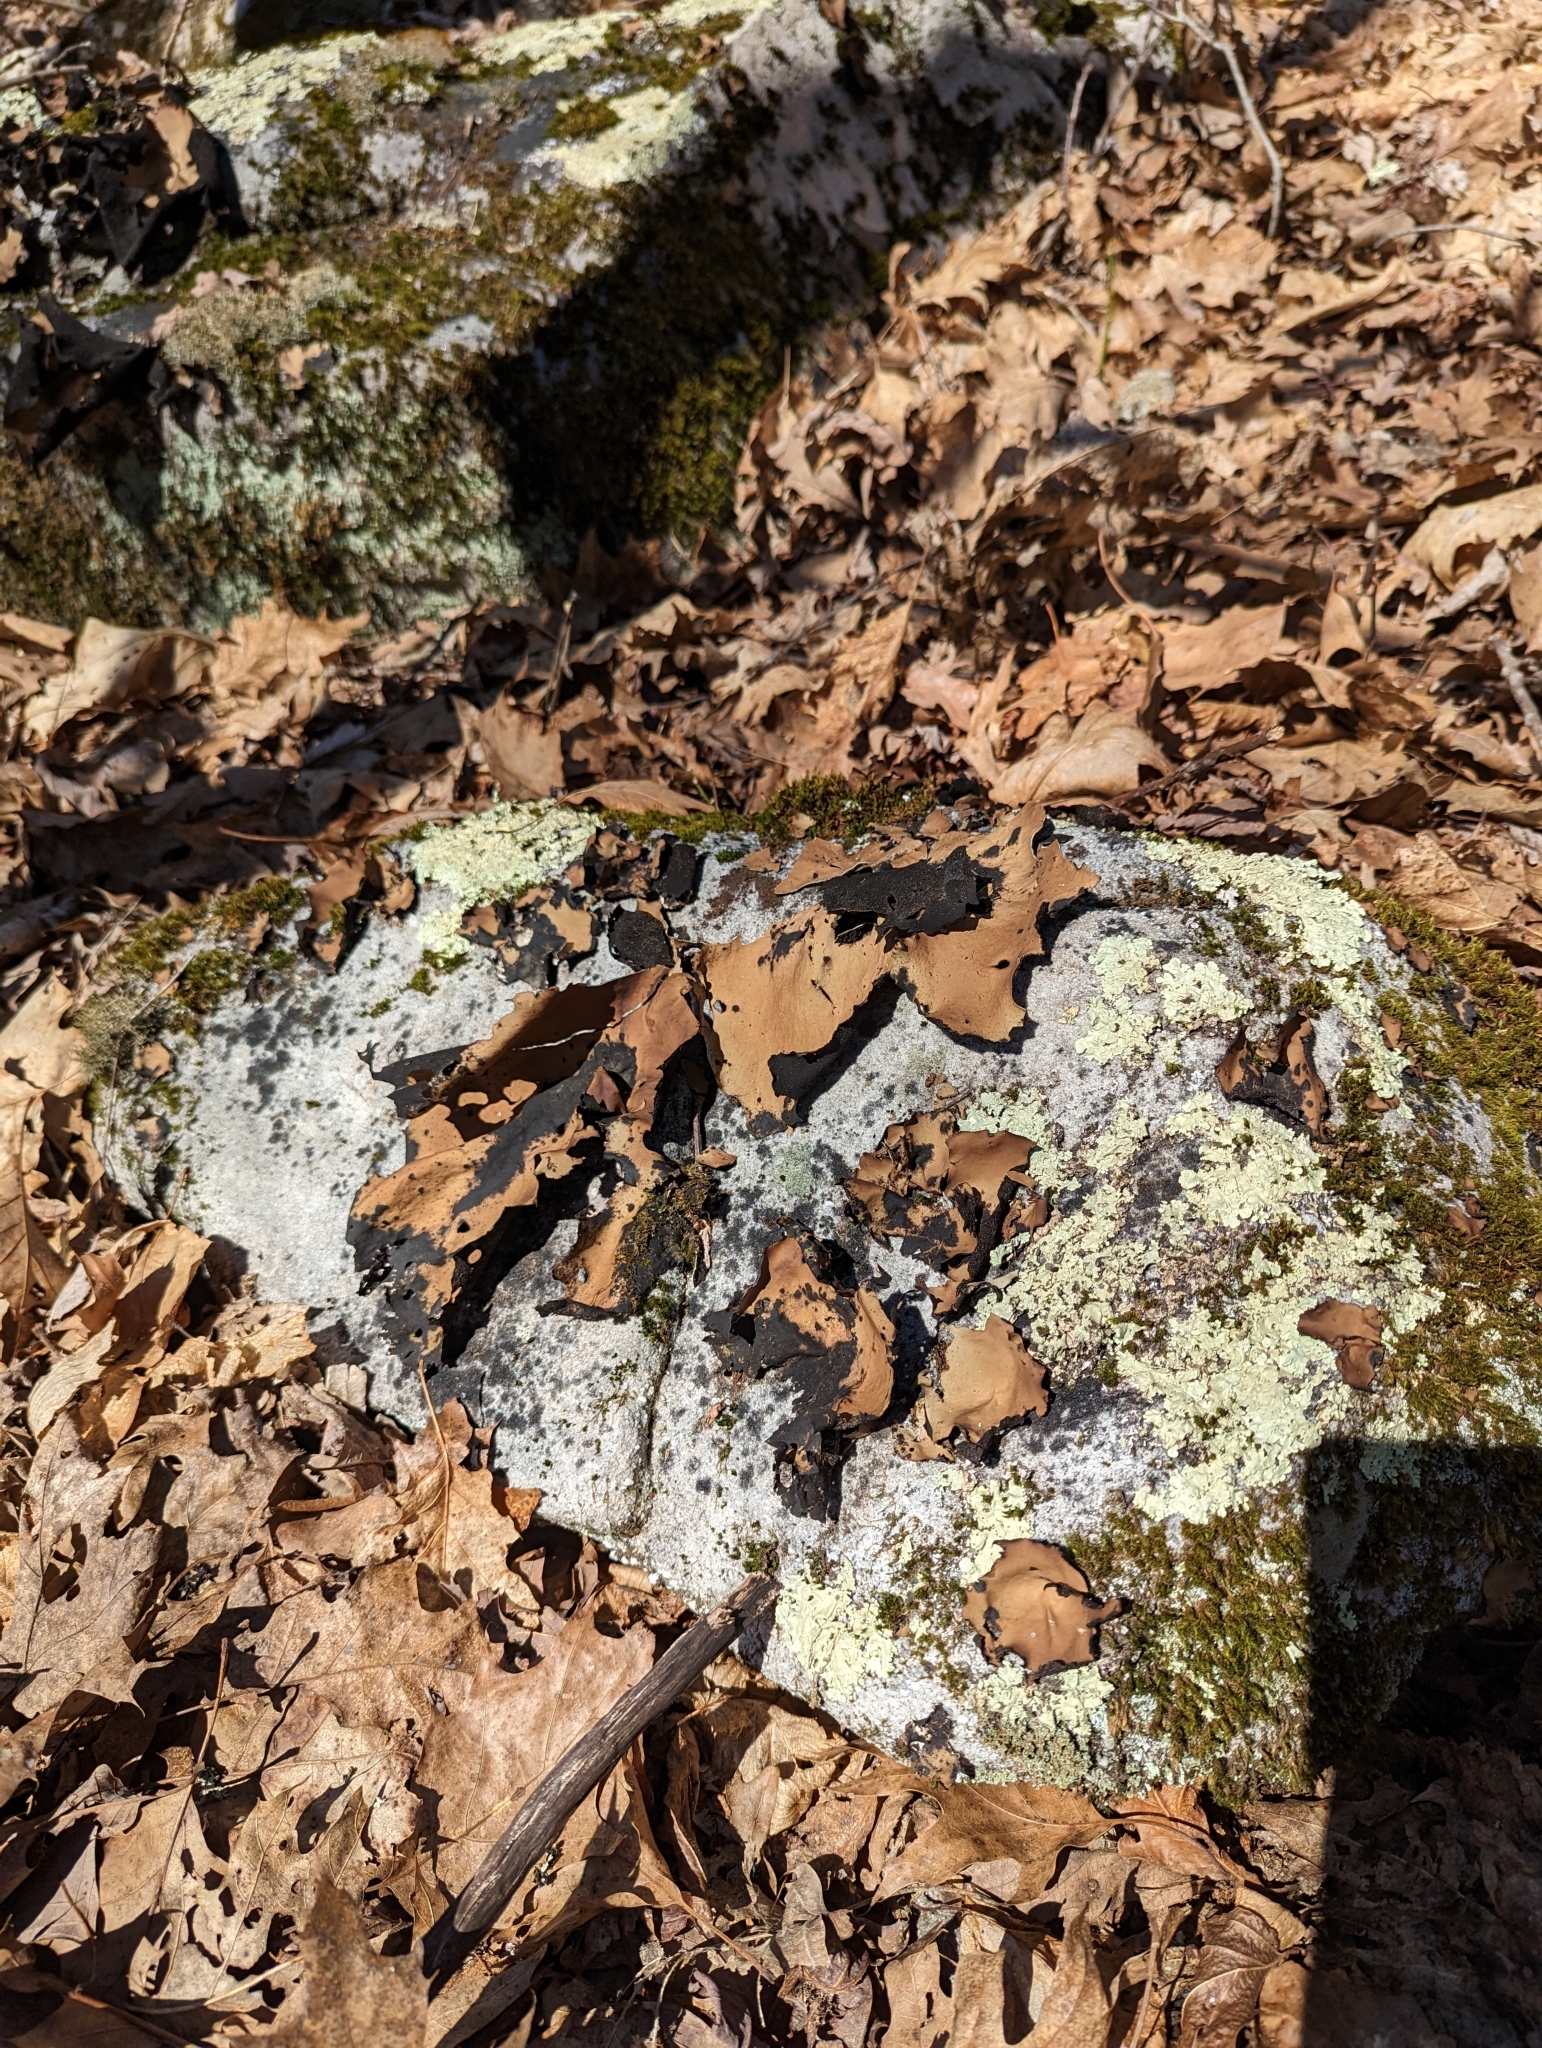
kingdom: Fungi
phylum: Ascomycota
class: Lecanoromycetes
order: Umbilicariales
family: Umbilicariaceae
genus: Umbilicaria
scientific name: Umbilicaria mammulata
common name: Smooth rock tripe
